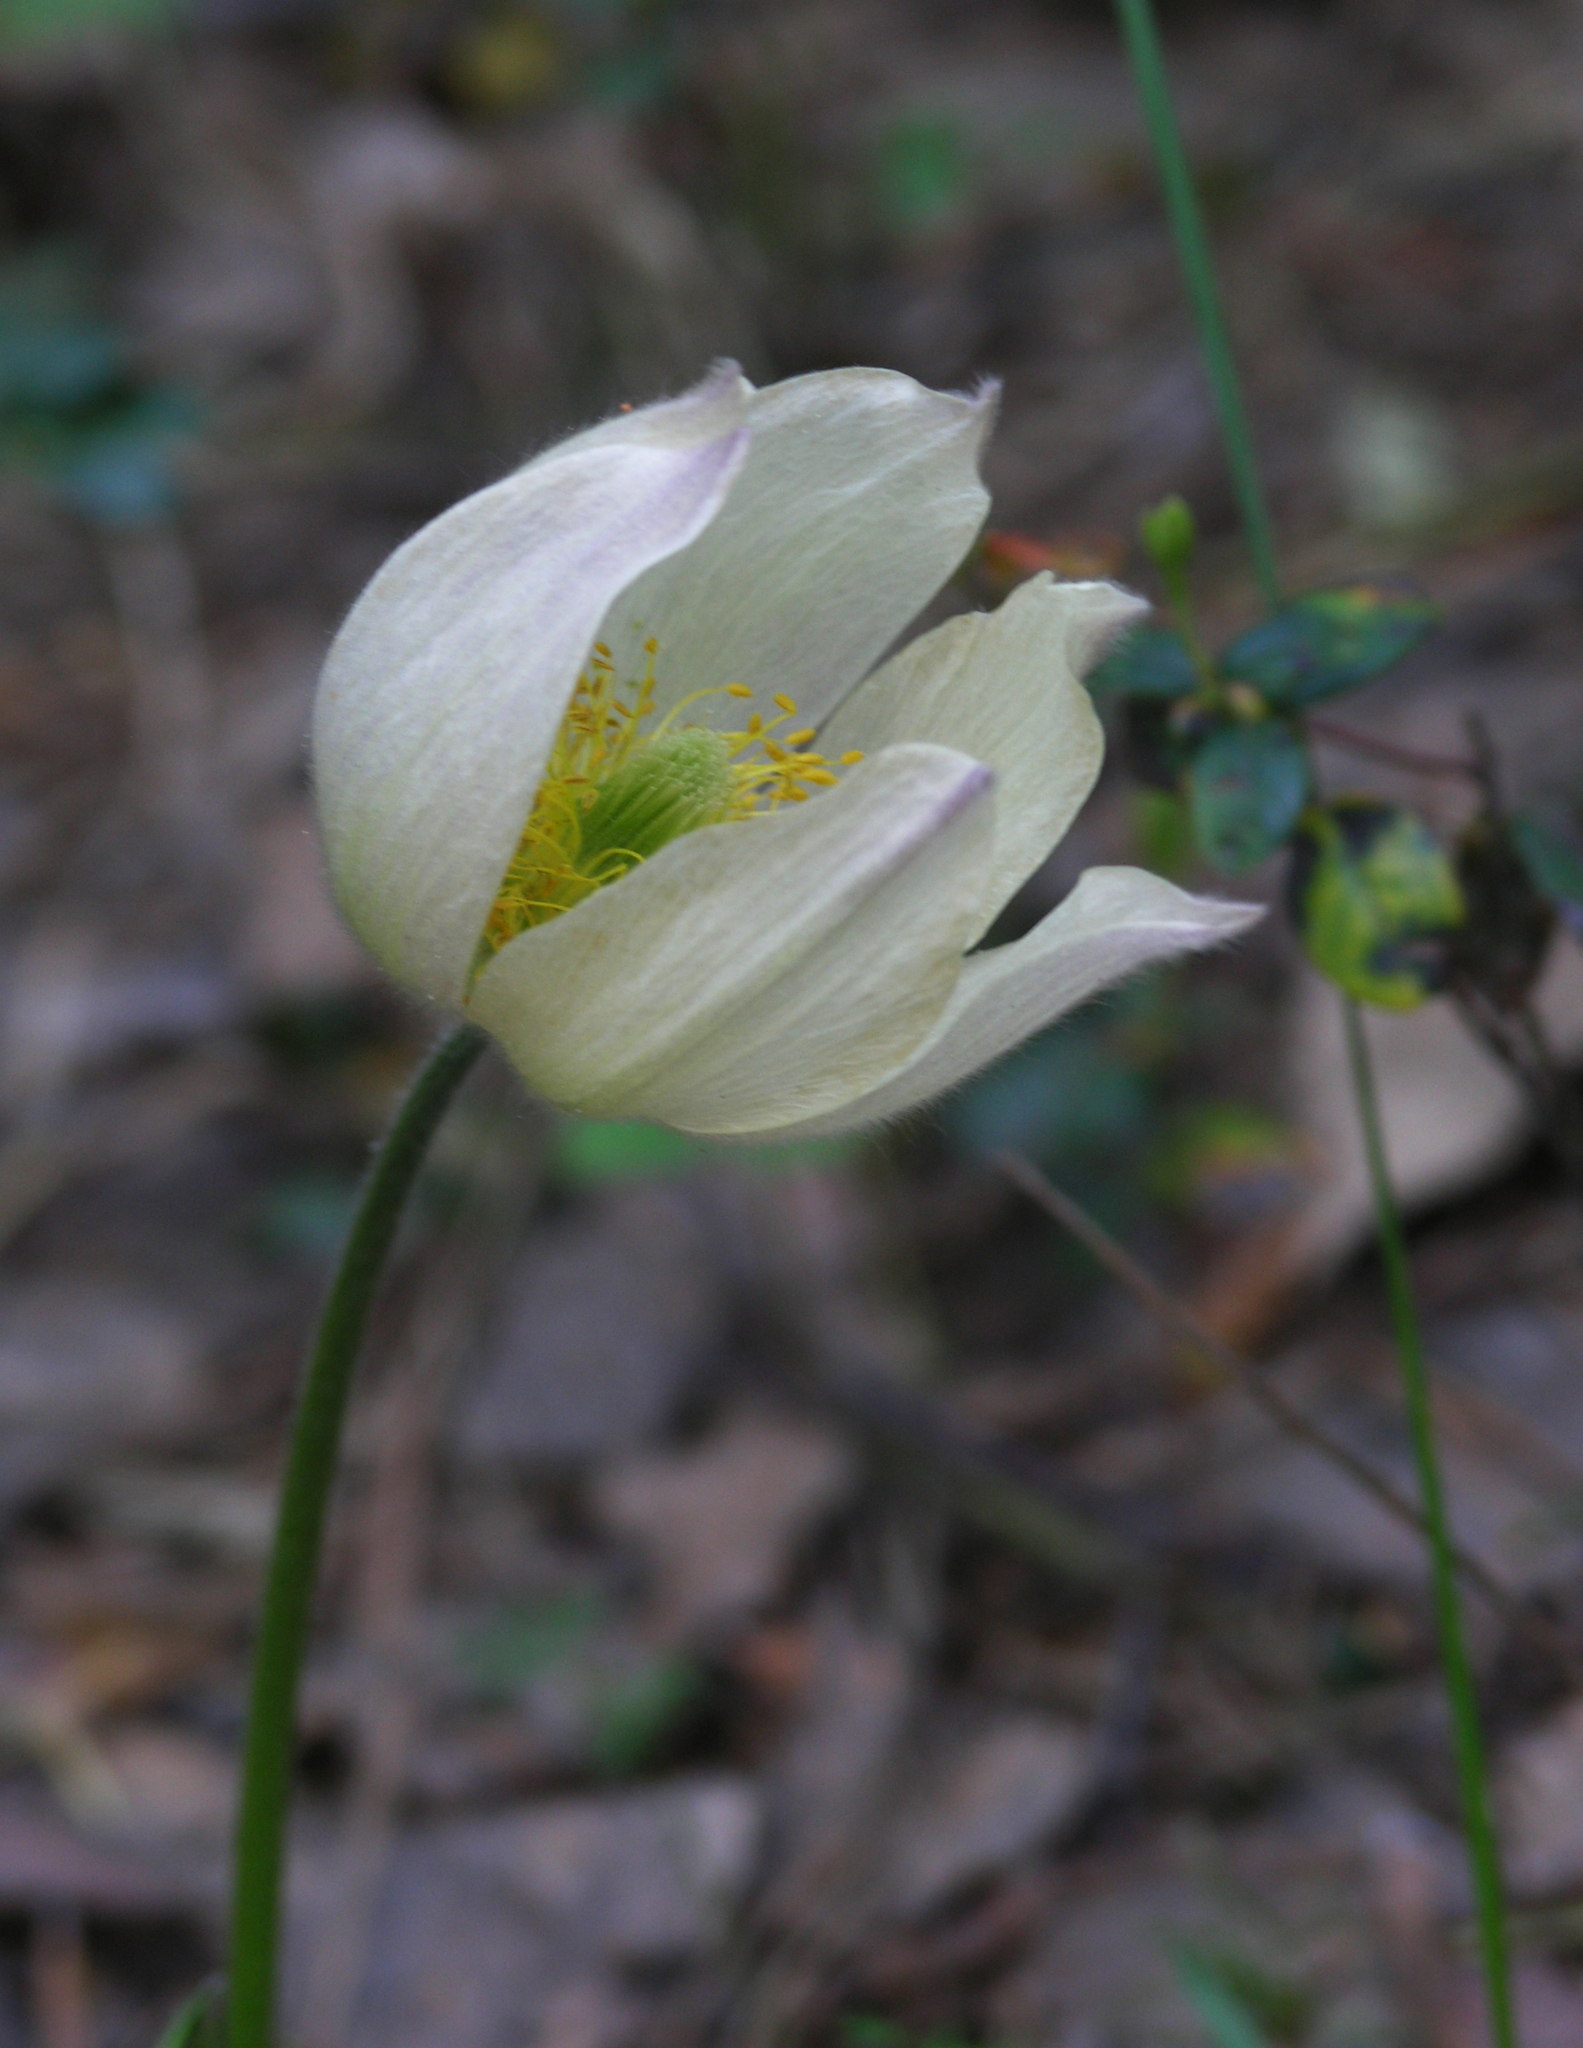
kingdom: Plantae
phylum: Tracheophyta
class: Magnoliopsida
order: Ranunculales
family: Ranunculaceae
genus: Pulsatilla
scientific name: Pulsatilla patens
